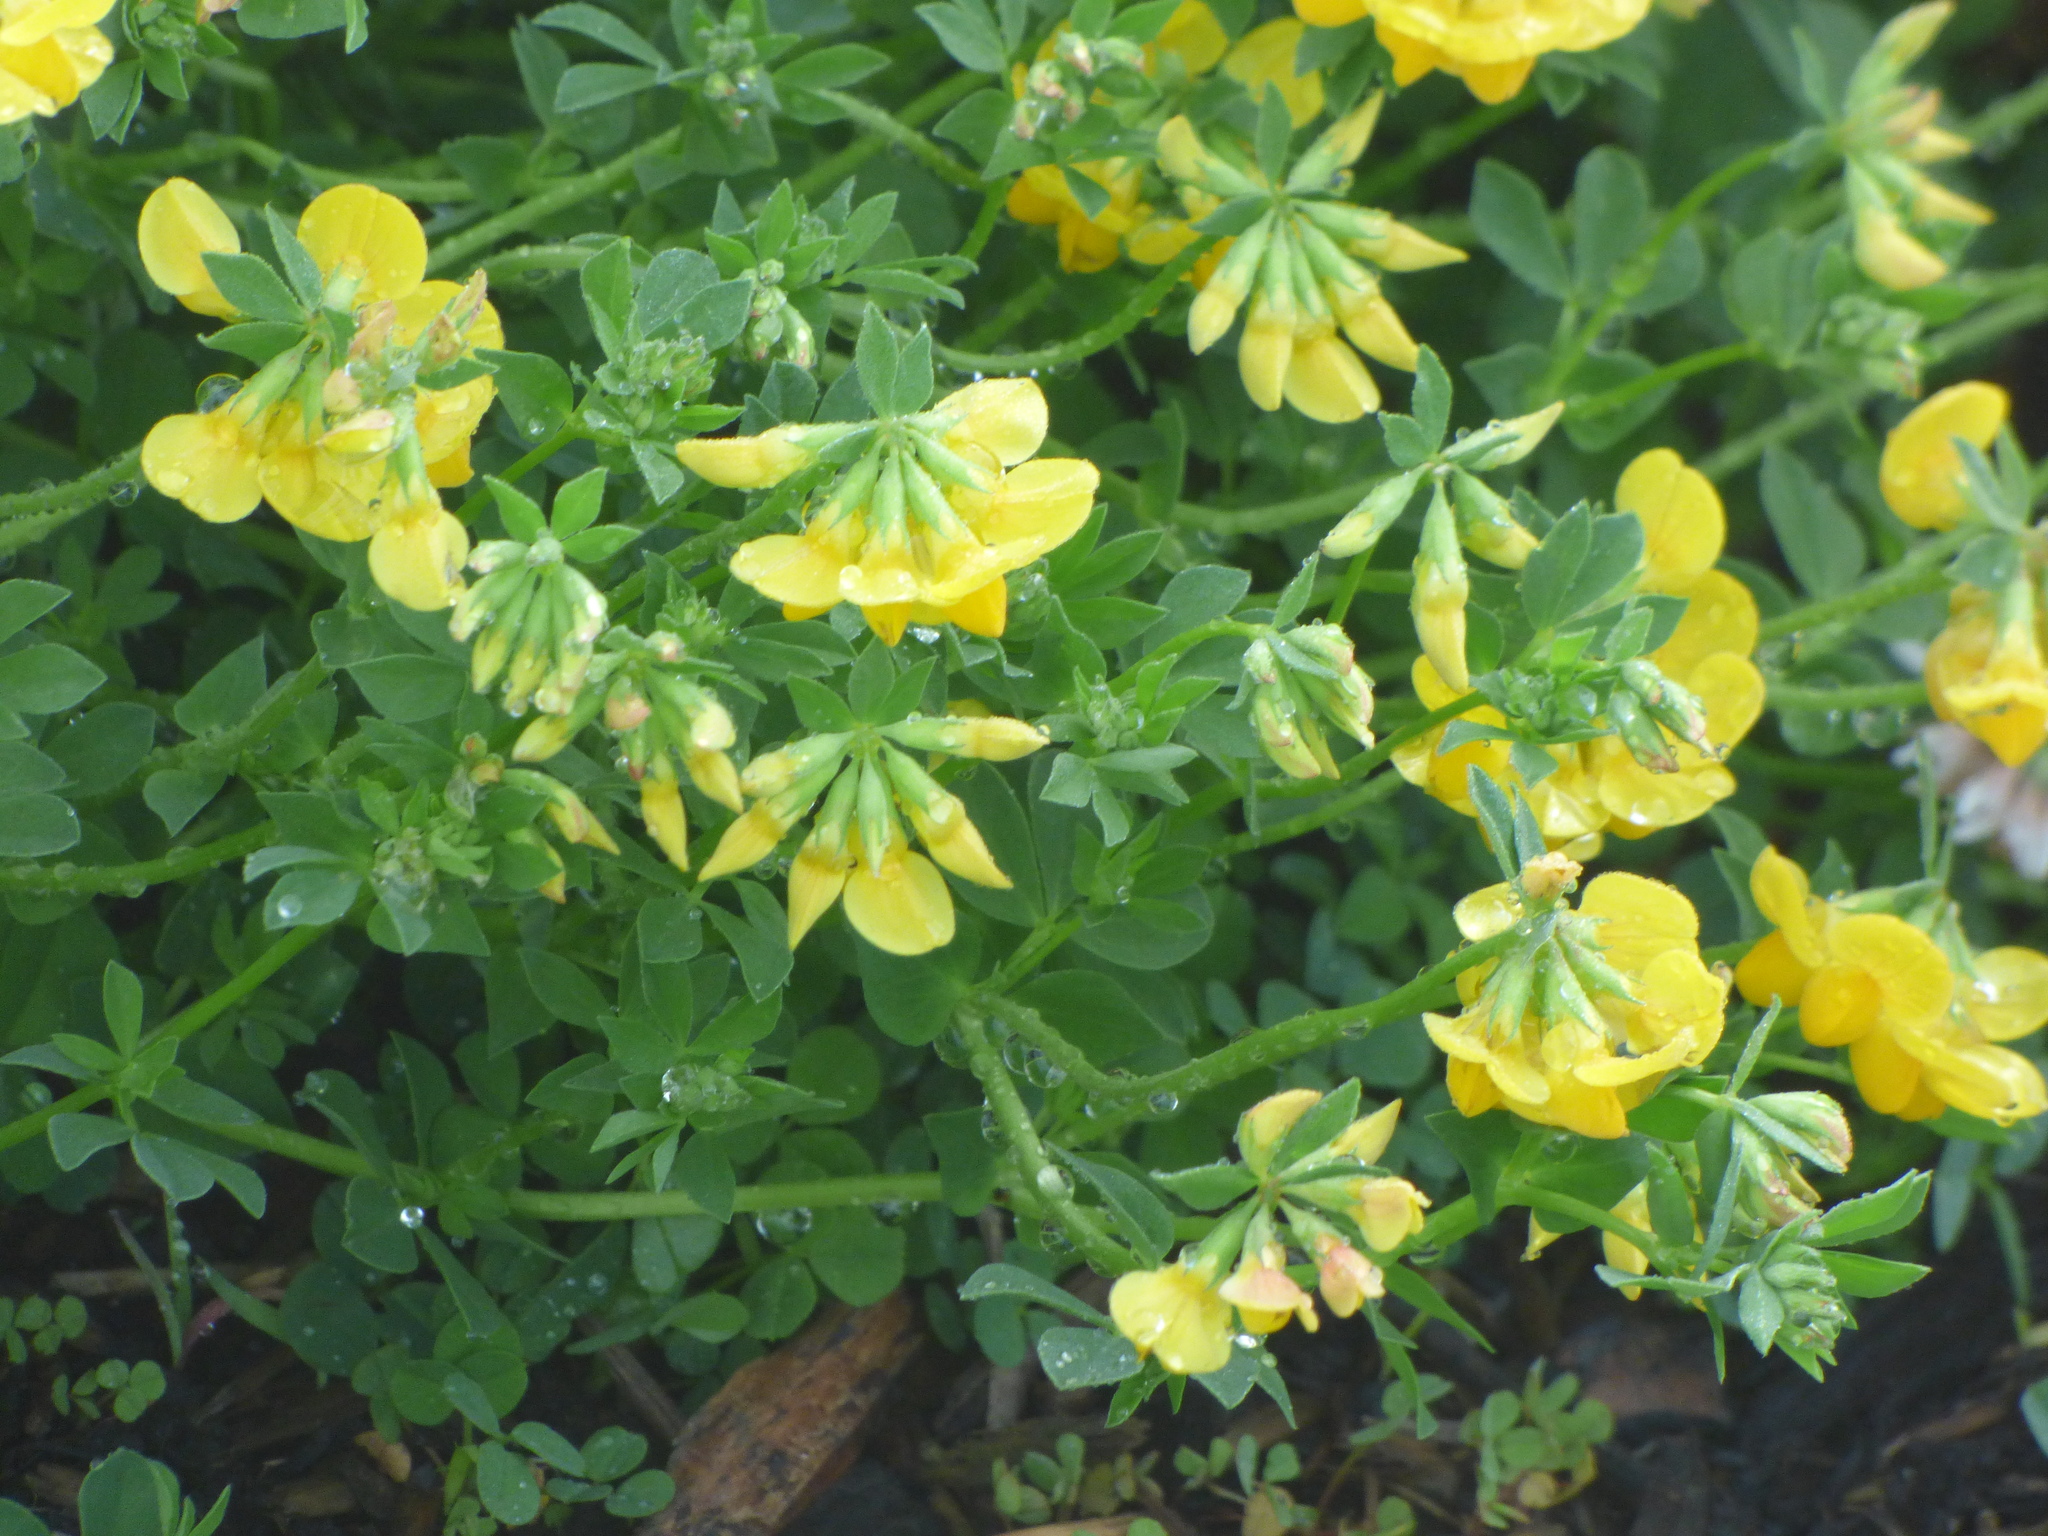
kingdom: Plantae
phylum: Tracheophyta
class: Magnoliopsida
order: Fabales
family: Fabaceae
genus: Lotus
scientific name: Lotus corniculatus
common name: Common bird's-foot-trefoil
